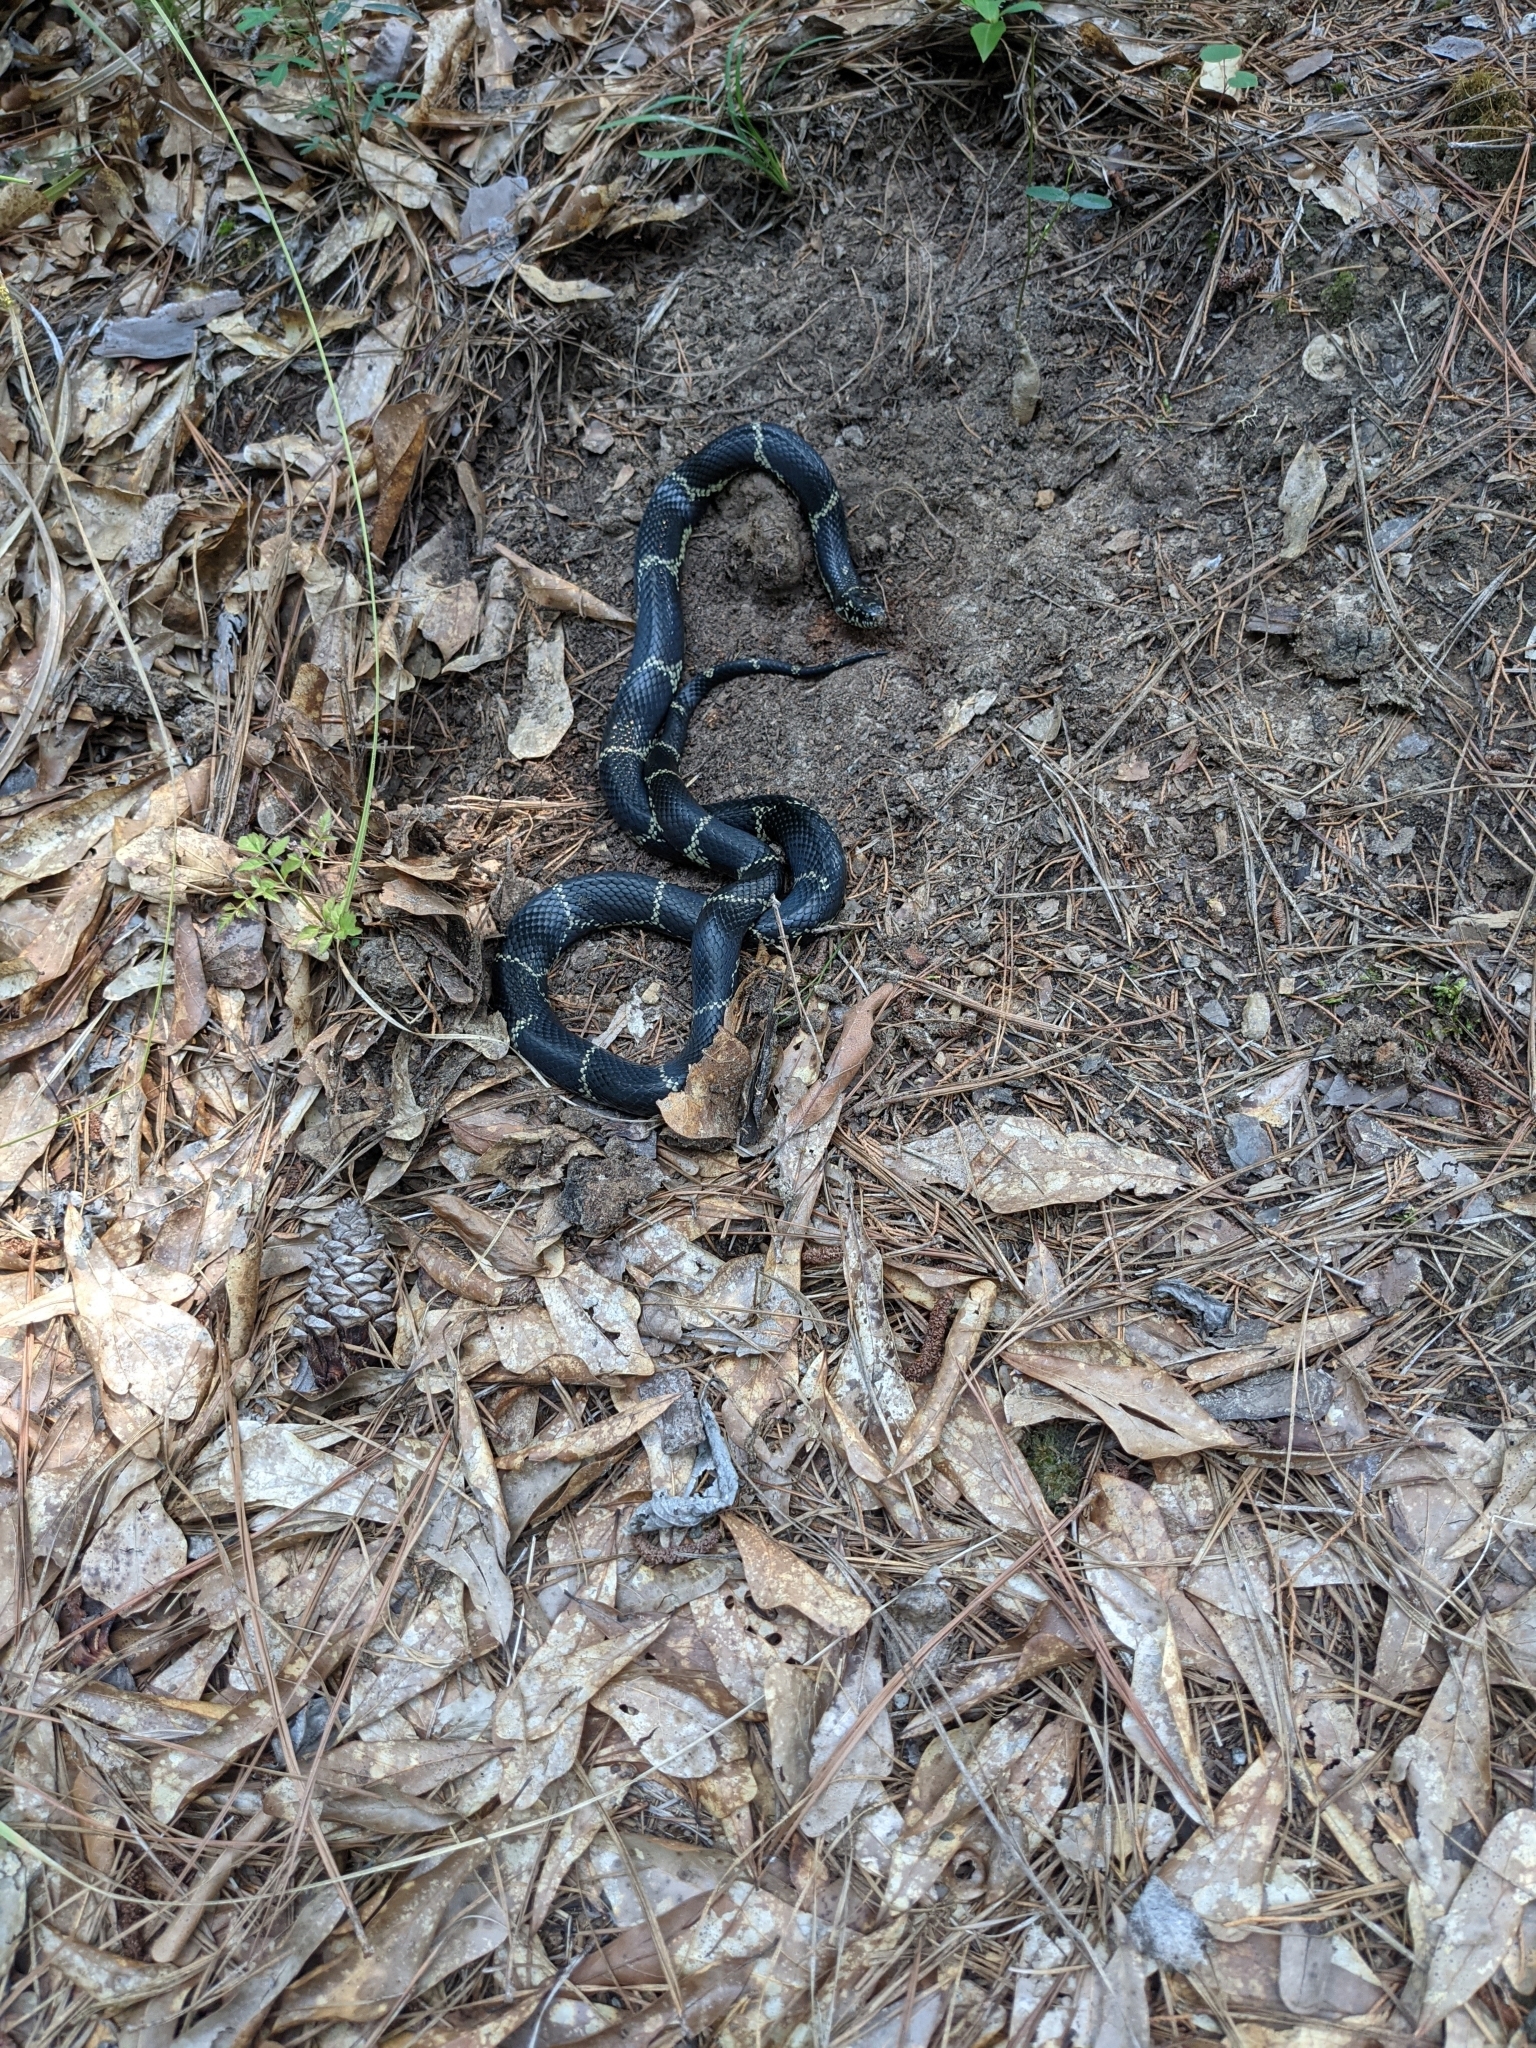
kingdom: Animalia
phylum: Chordata
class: Squamata
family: Colubridae
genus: Lampropeltis
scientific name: Lampropeltis getula
